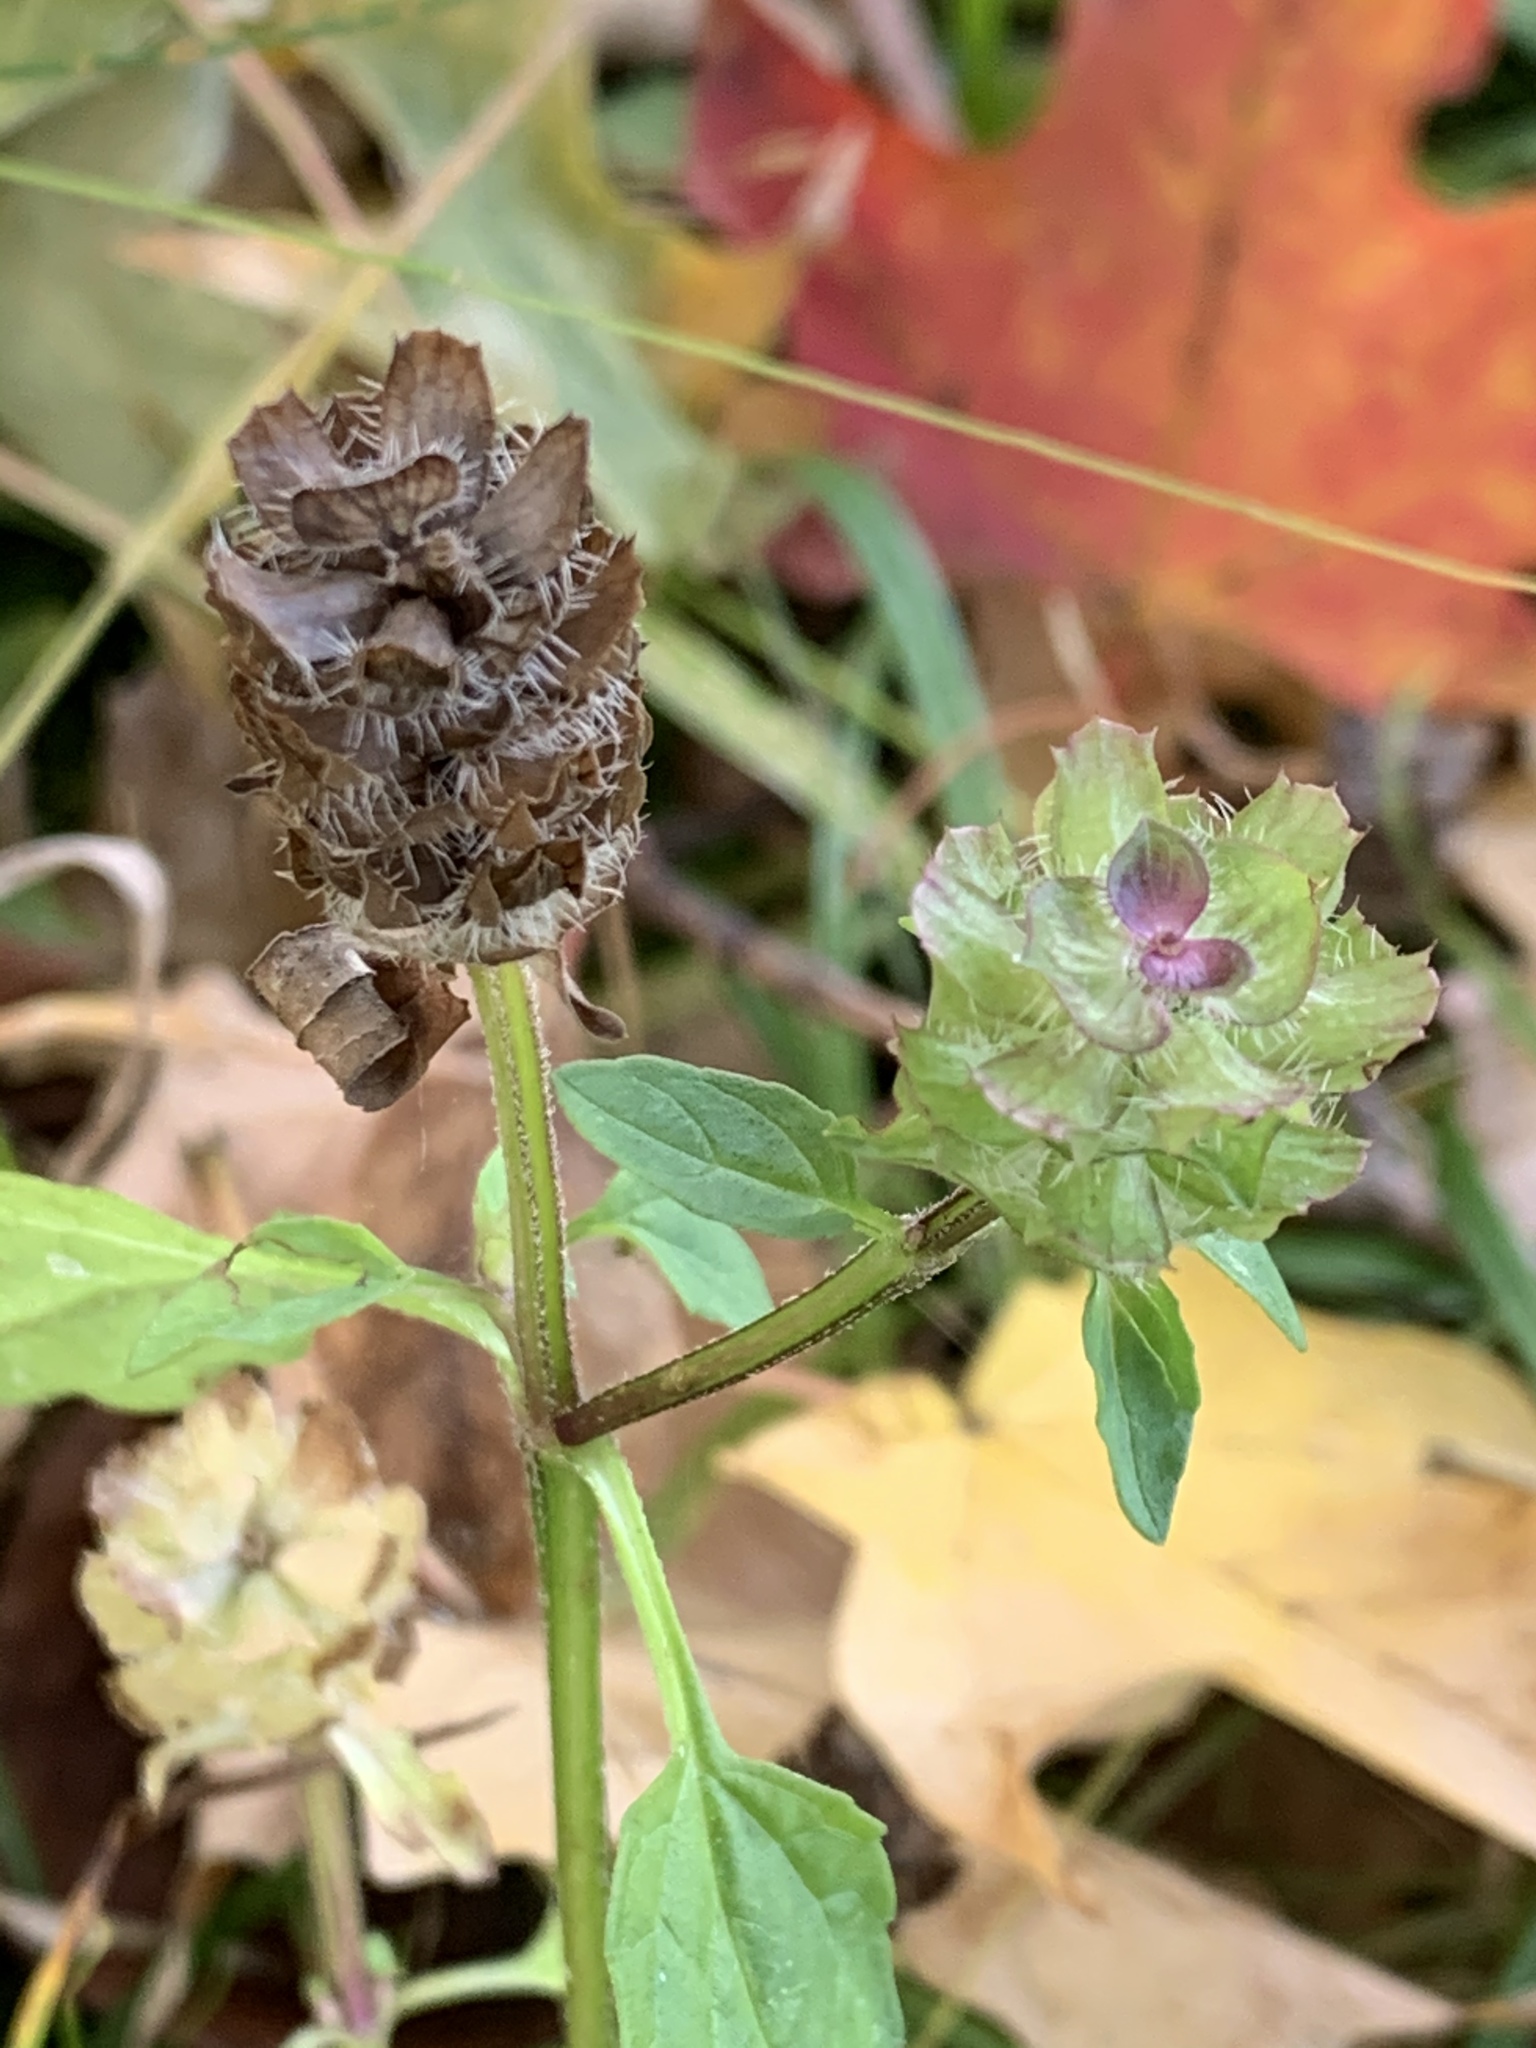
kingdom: Plantae
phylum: Tracheophyta
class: Magnoliopsida
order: Lamiales
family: Lamiaceae
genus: Prunella
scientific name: Prunella vulgaris
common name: Heal-all
